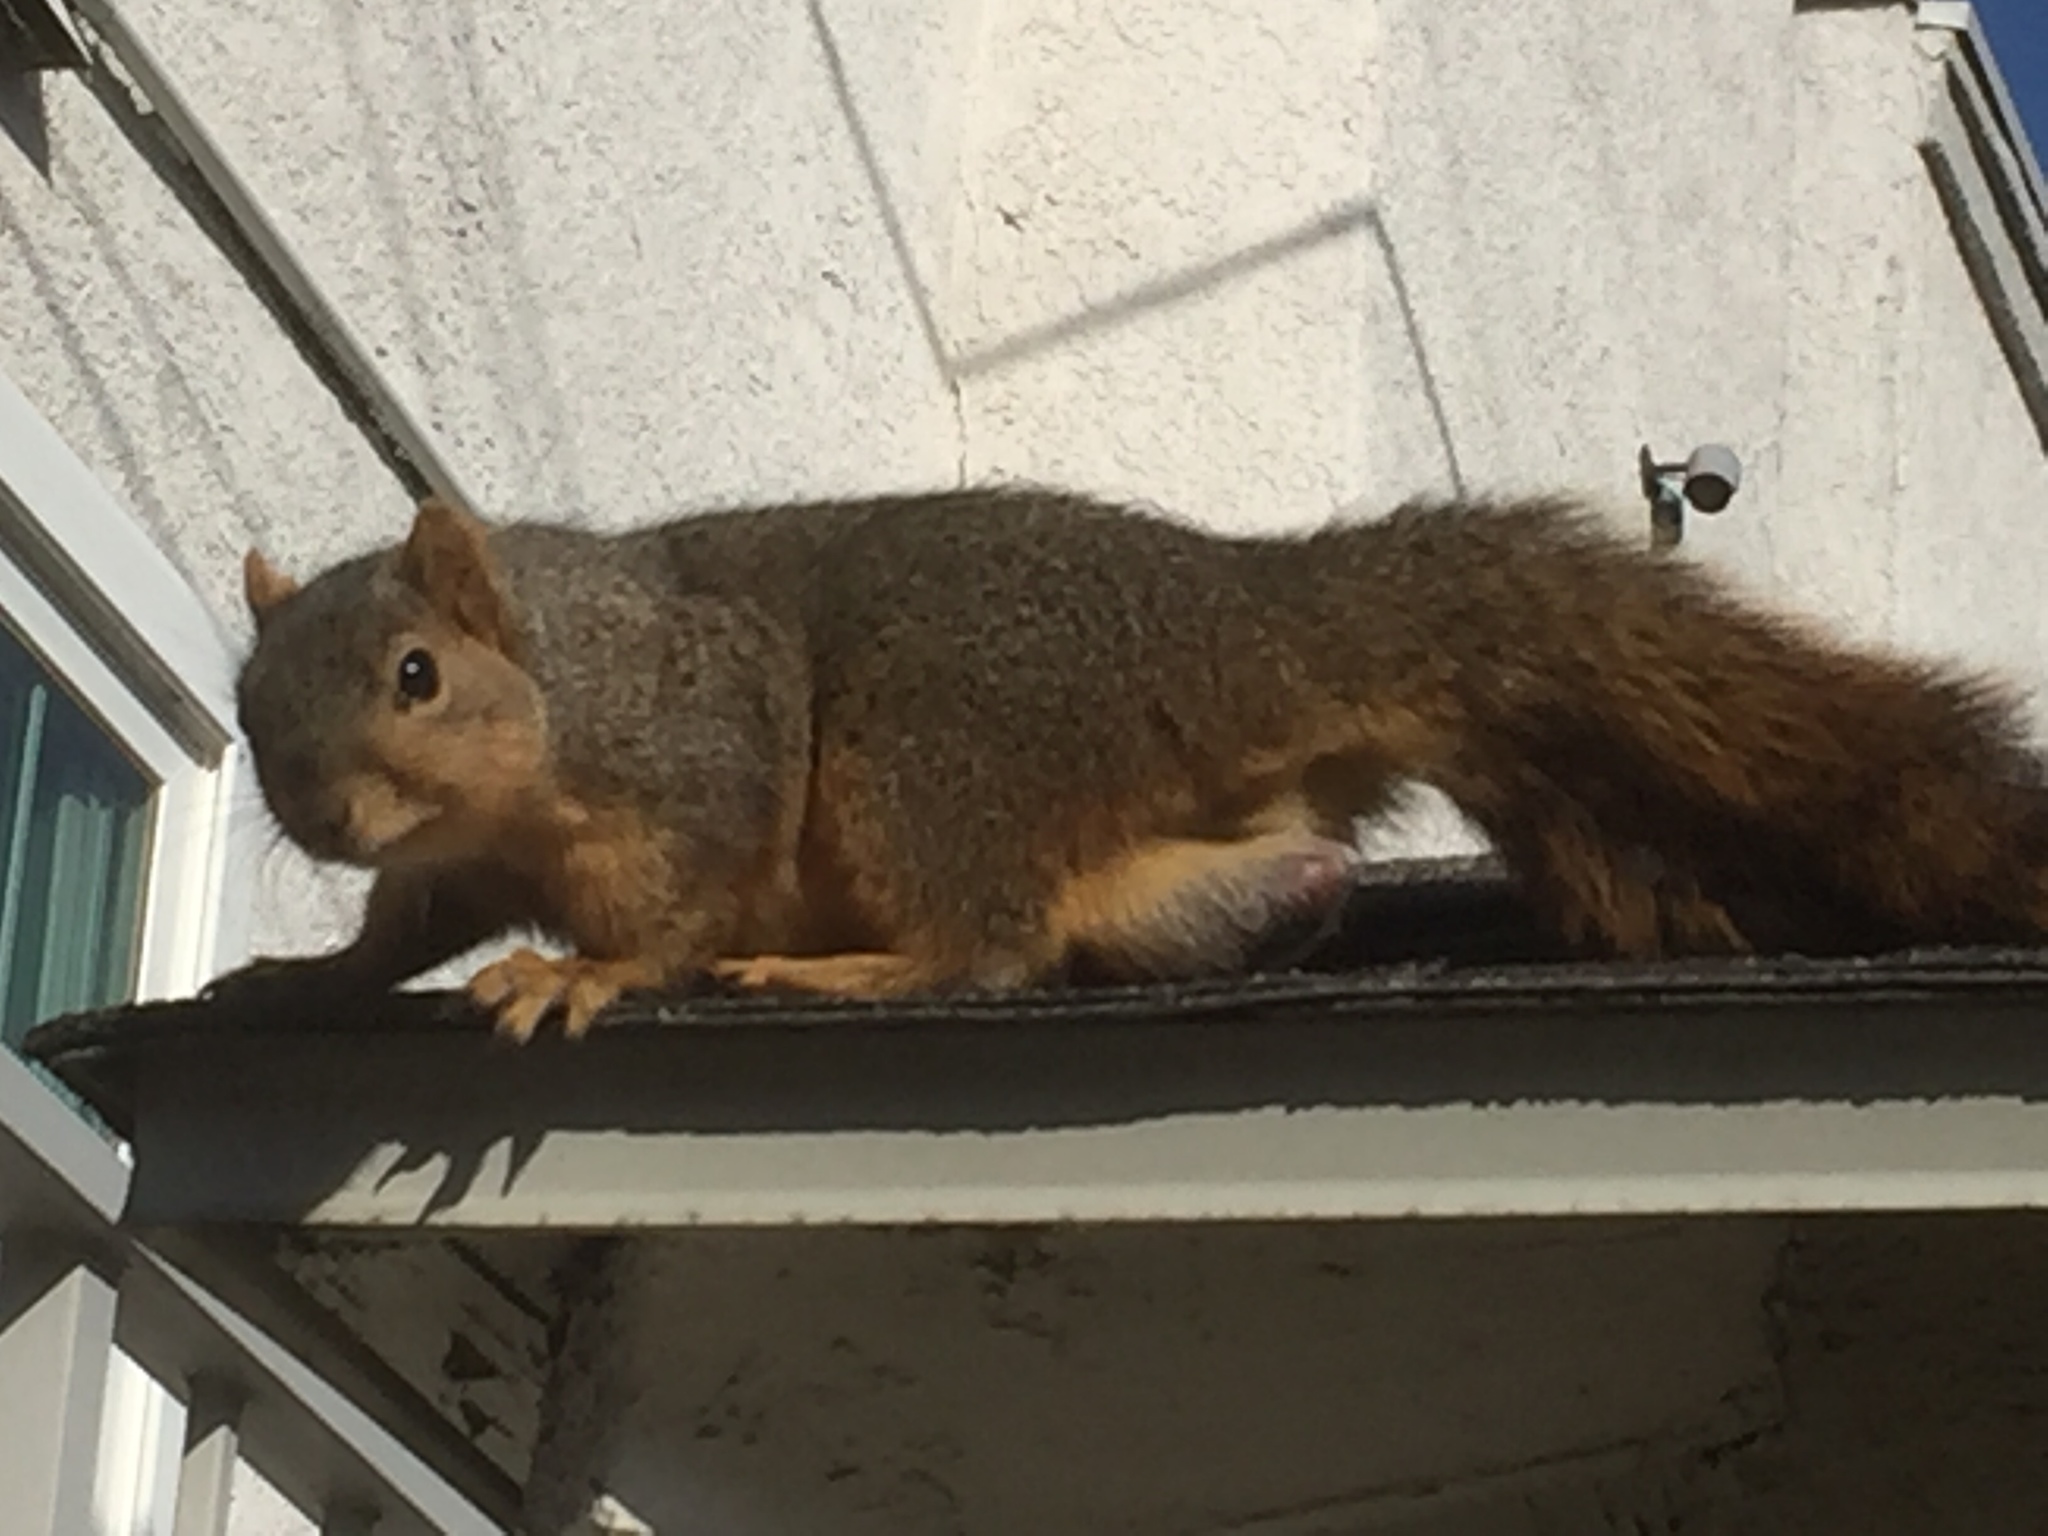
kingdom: Animalia
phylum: Chordata
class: Mammalia
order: Rodentia
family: Sciuridae
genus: Sciurus
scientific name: Sciurus niger
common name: Fox squirrel
